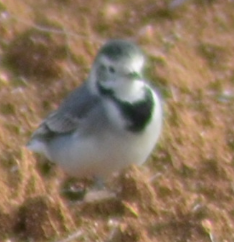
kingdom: Animalia
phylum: Chordata
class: Aves
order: Passeriformes
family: Motacillidae
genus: Motacilla
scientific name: Motacilla alba
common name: White wagtail
